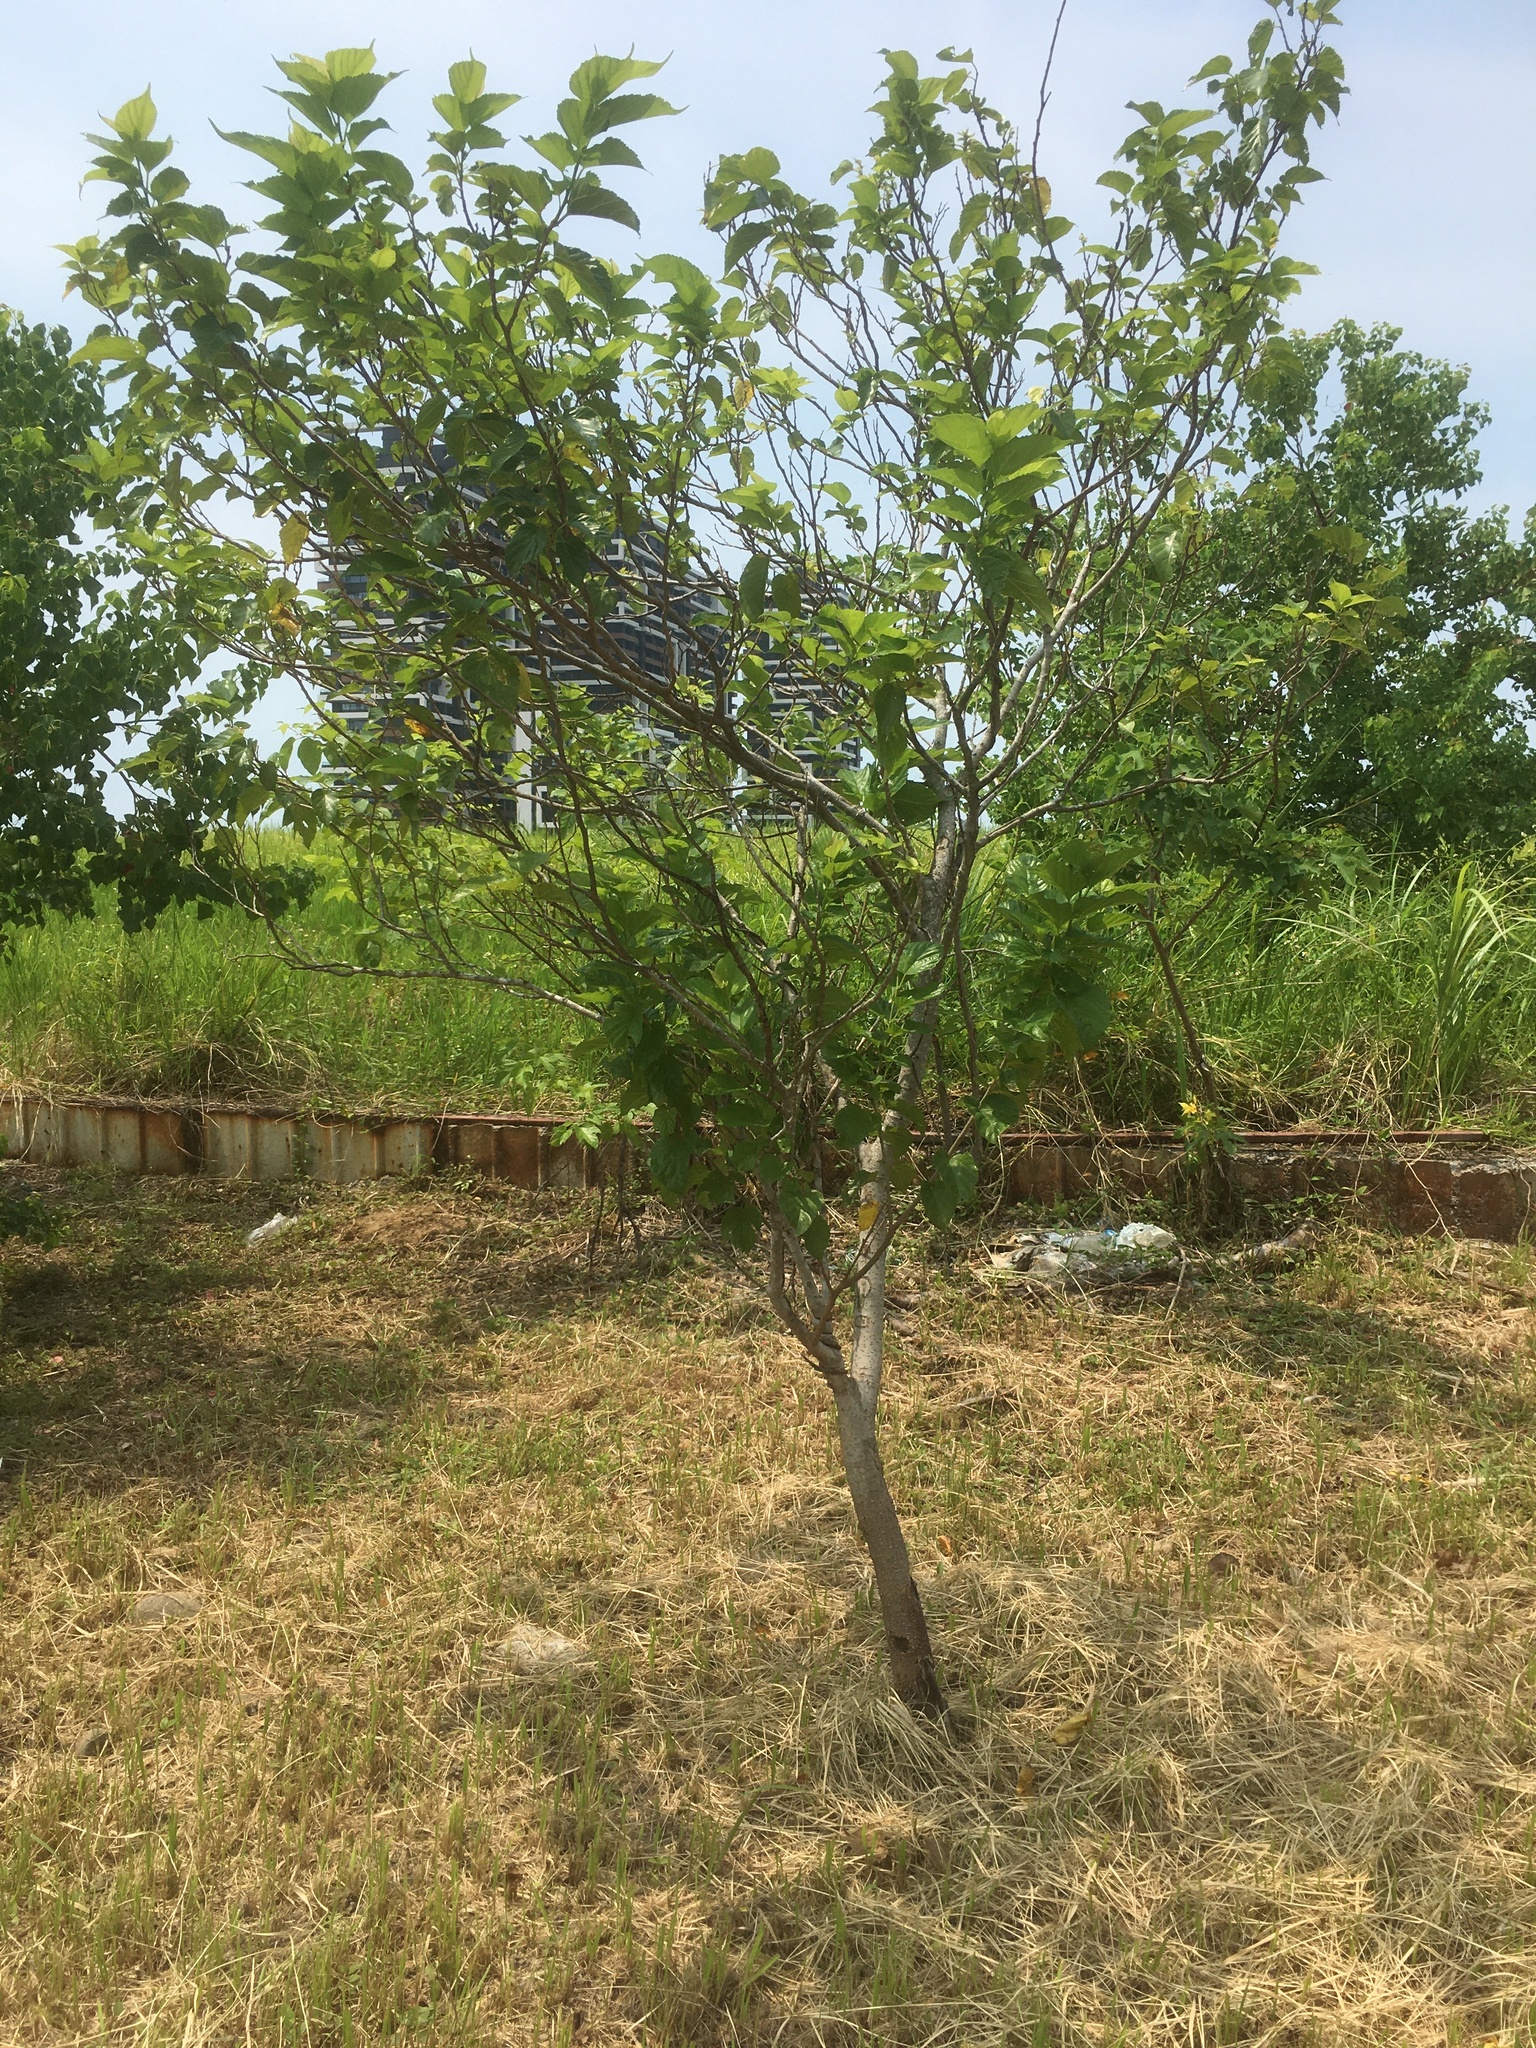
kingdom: Plantae
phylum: Tracheophyta
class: Magnoliopsida
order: Rosales
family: Moraceae
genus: Morus
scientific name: Morus indica
